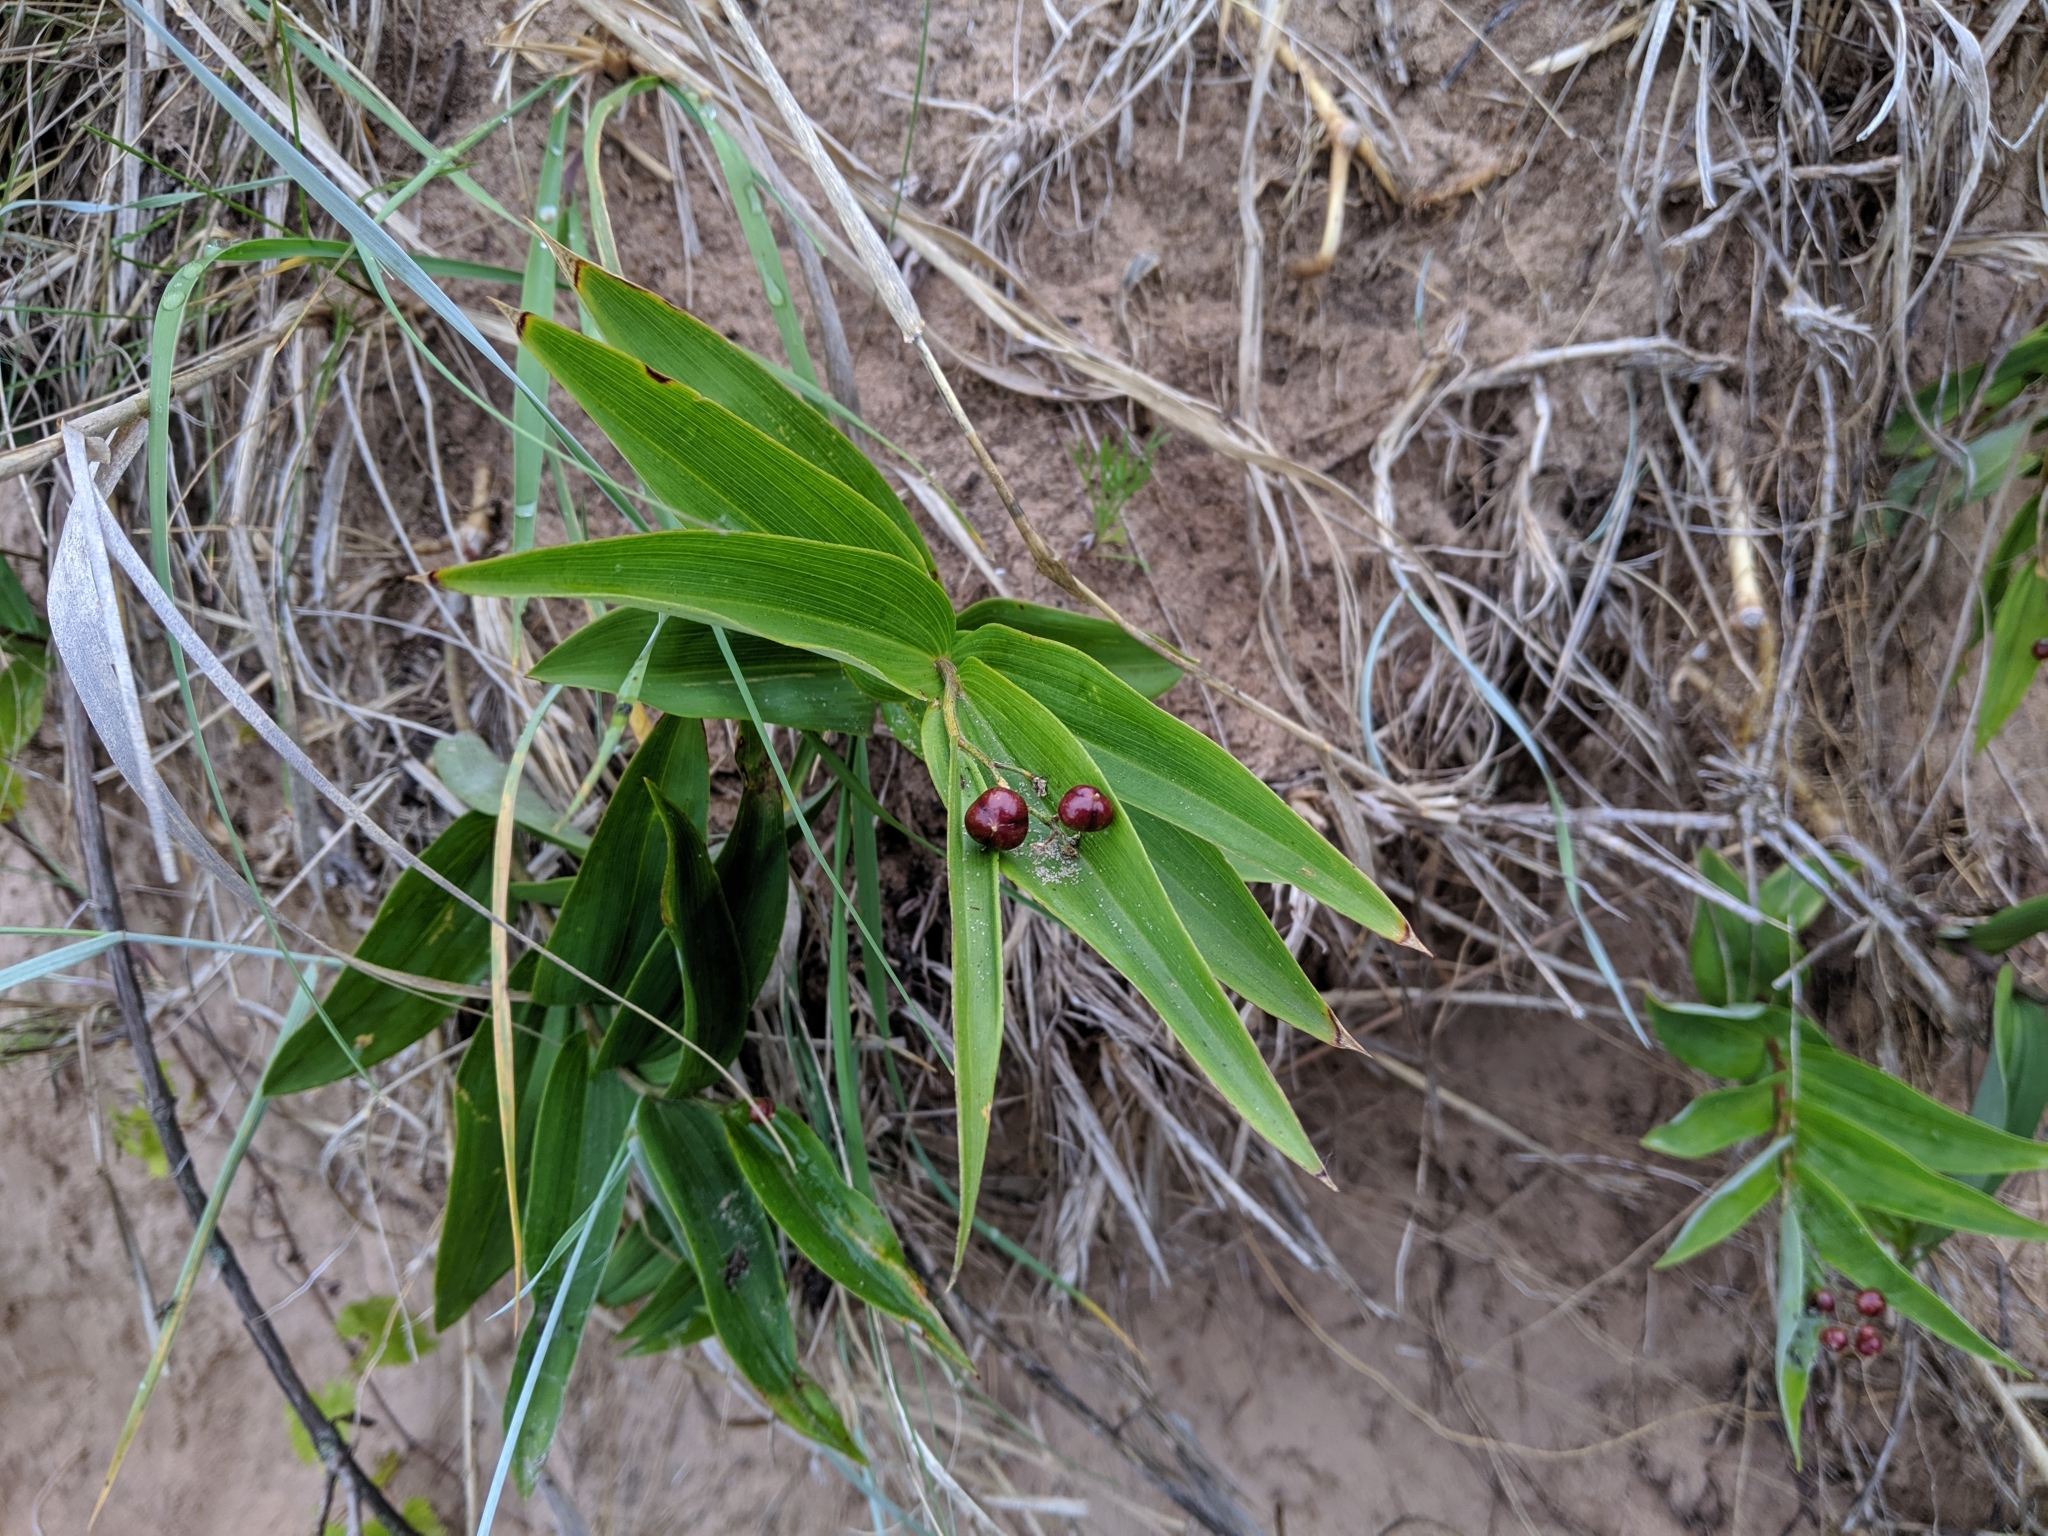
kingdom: Plantae
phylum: Tracheophyta
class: Liliopsida
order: Asparagales
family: Asparagaceae
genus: Maianthemum
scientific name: Maianthemum stellatum
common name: Little false solomon's seal
